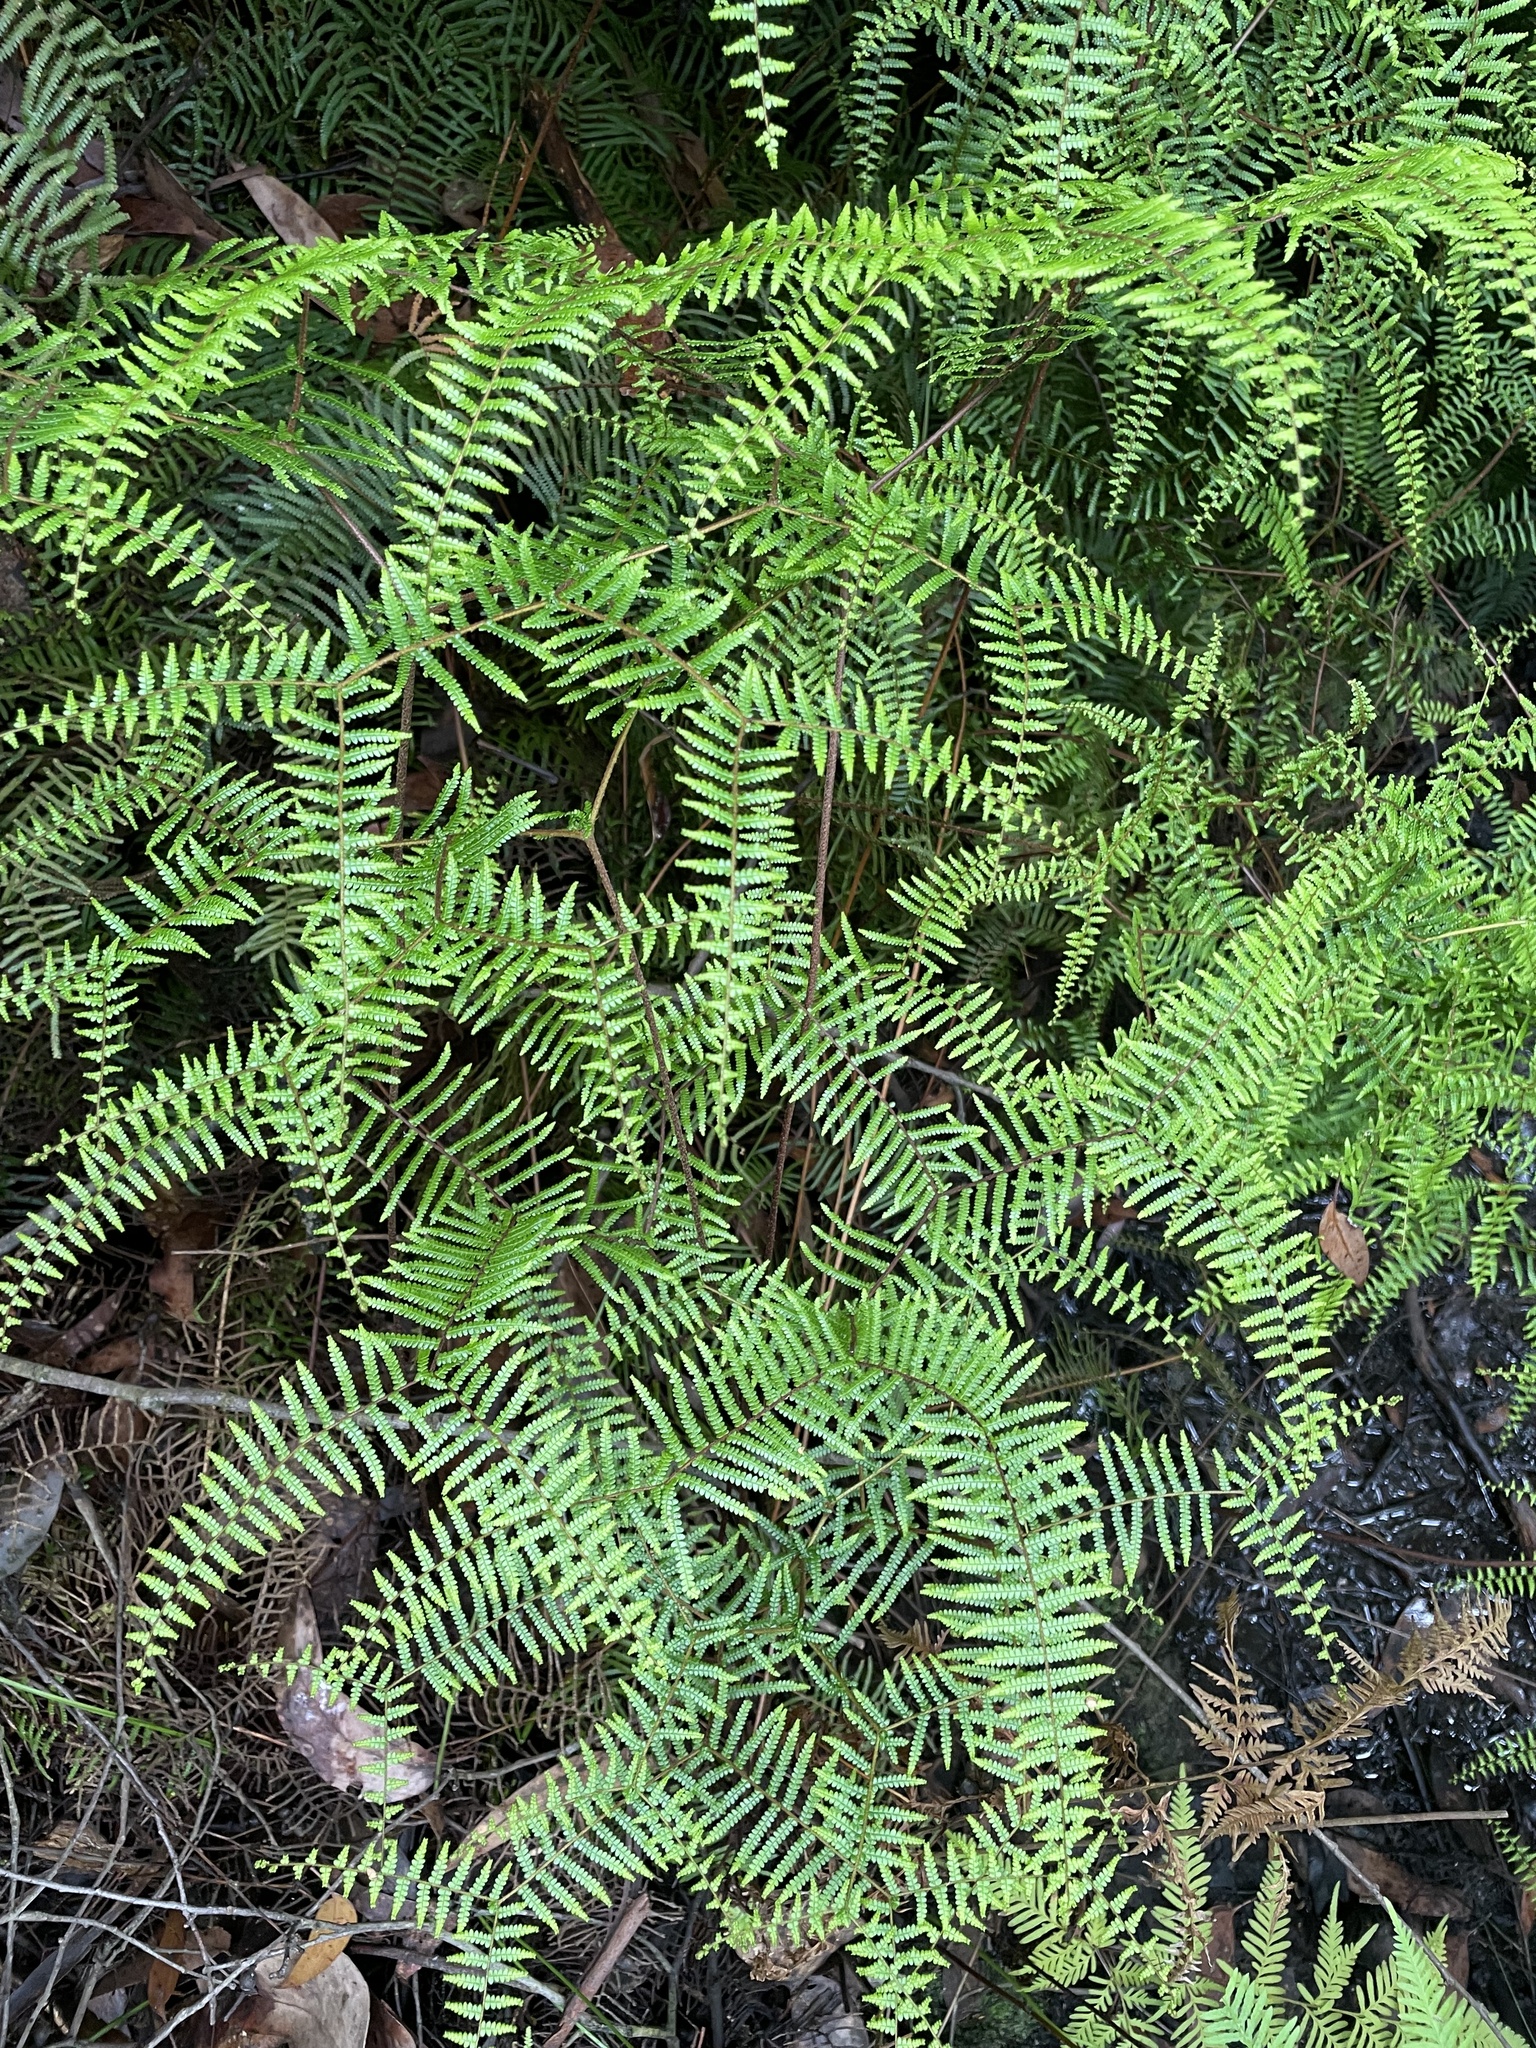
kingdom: Plantae
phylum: Tracheophyta
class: Polypodiopsida
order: Gleicheniales
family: Gleicheniaceae
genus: Gleichenia
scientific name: Gleichenia microphylla
